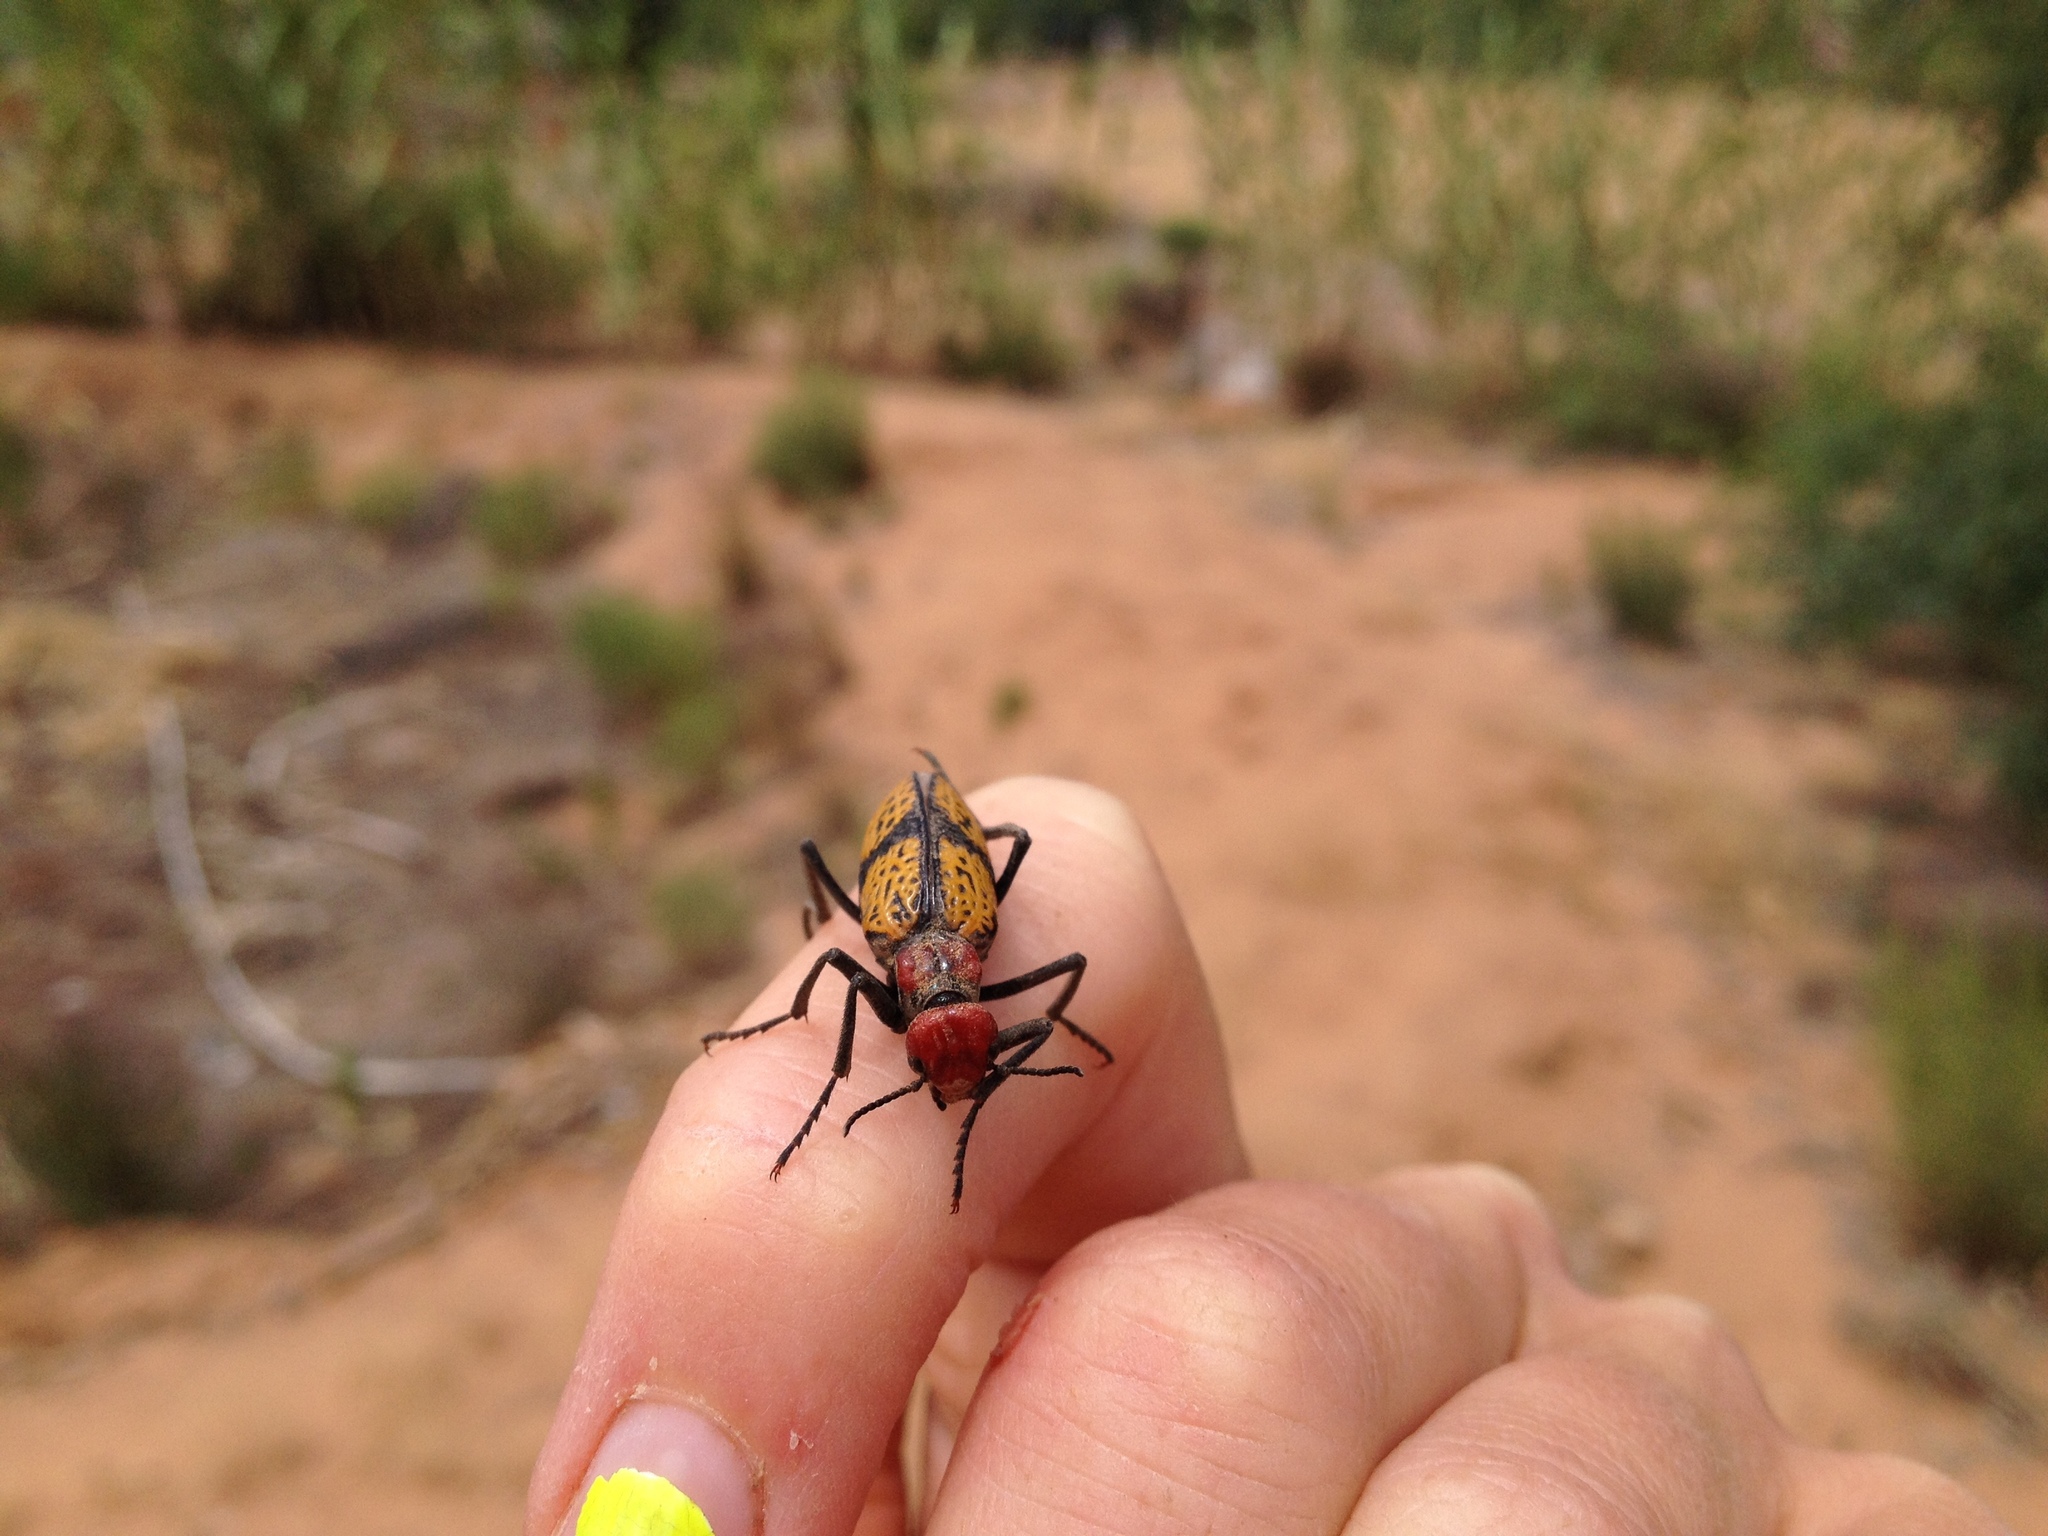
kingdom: Animalia
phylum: Arthropoda
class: Insecta
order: Coleoptera
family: Meloidae
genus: Tegrodera
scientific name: Tegrodera aloga
